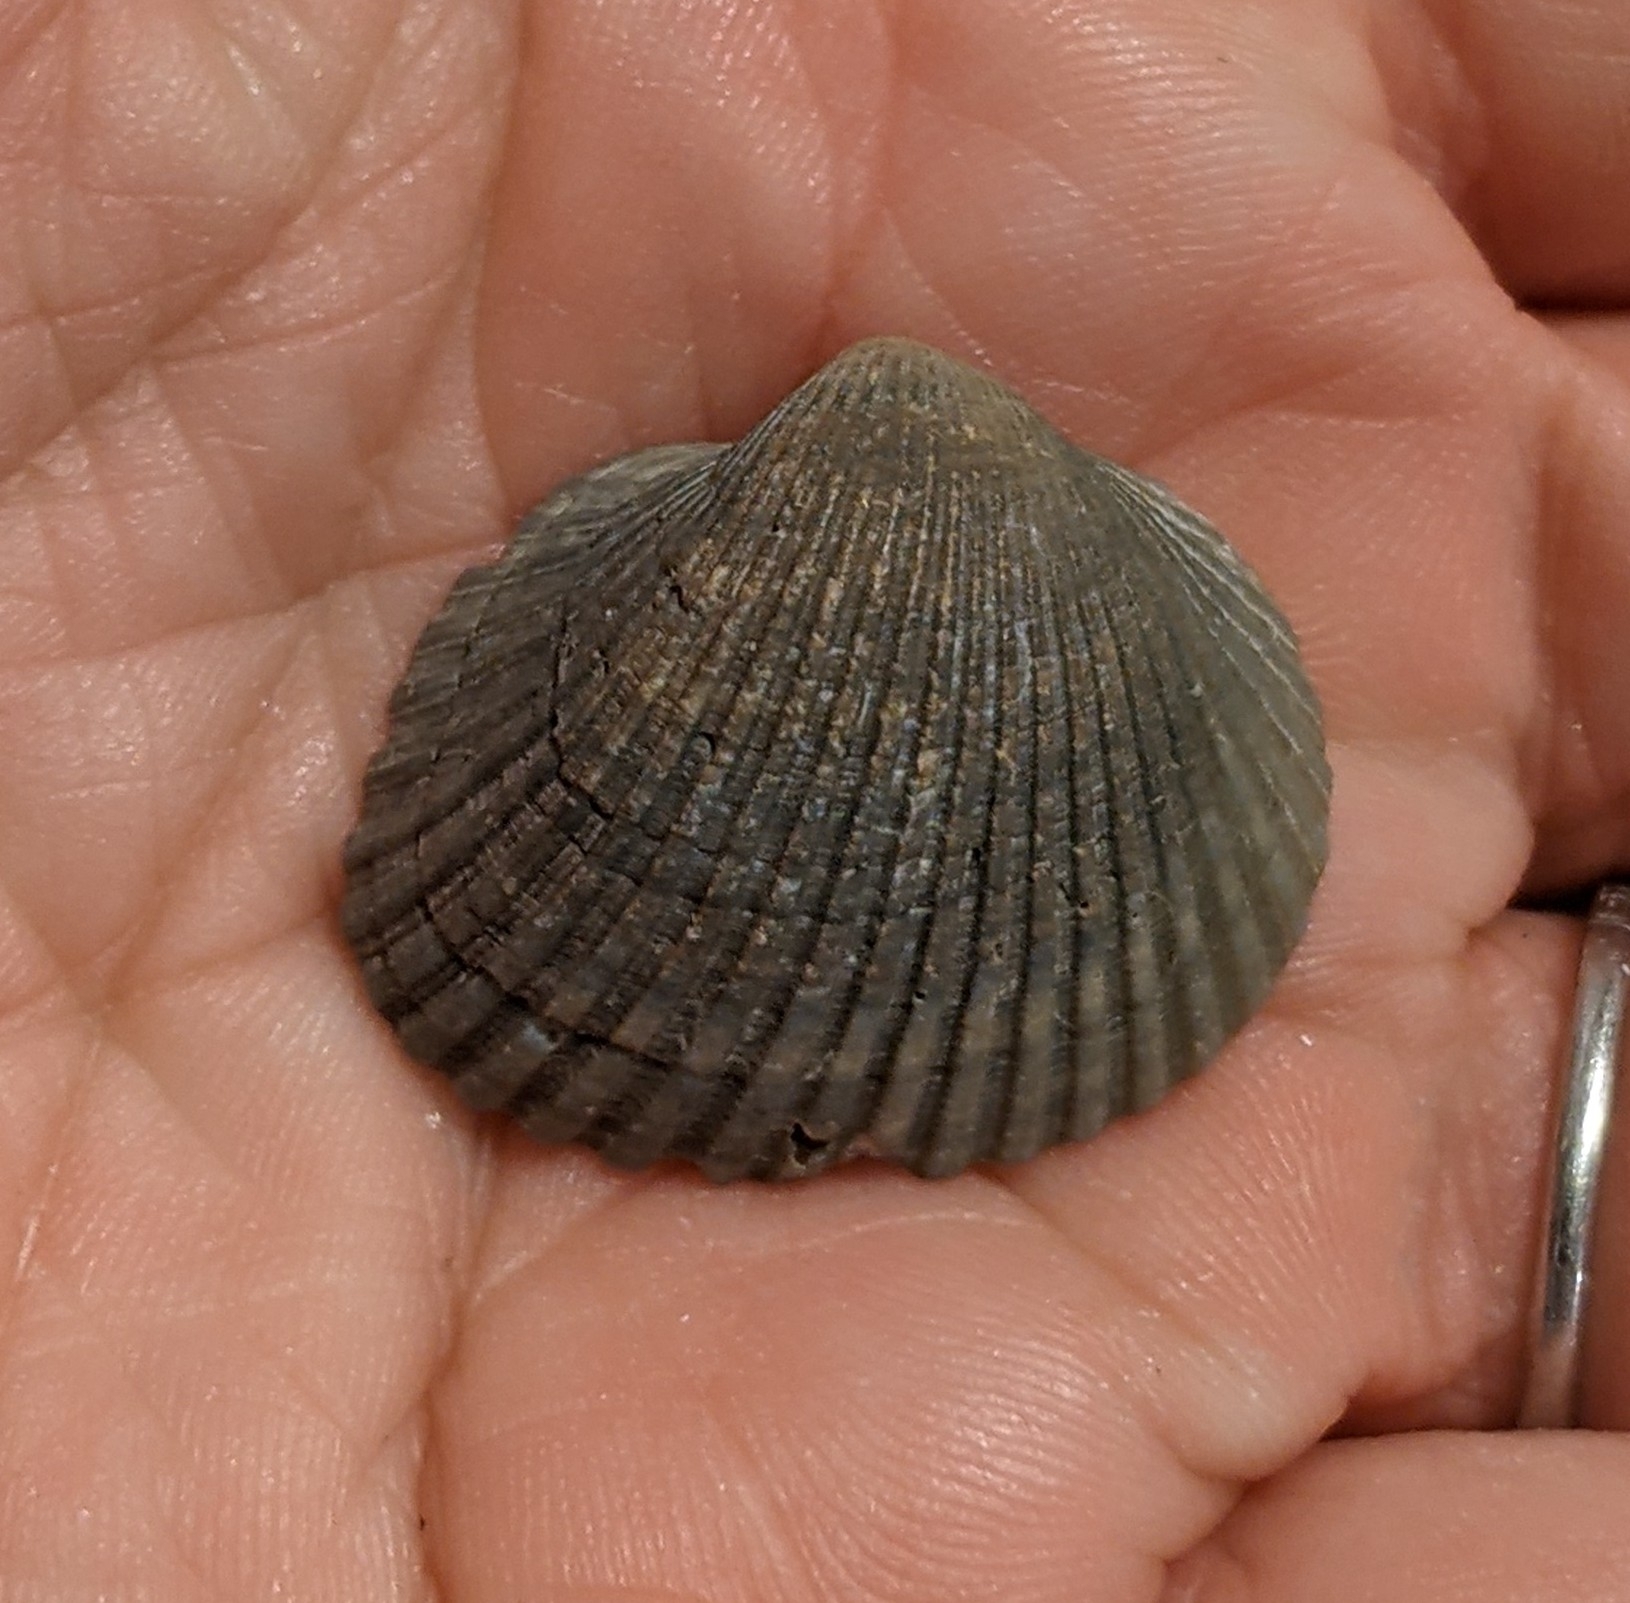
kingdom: Animalia
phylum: Mollusca
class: Bivalvia
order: Arcida
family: Noetiidae
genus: Noetia
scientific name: Noetia ponderosa
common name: Ponderous ark
